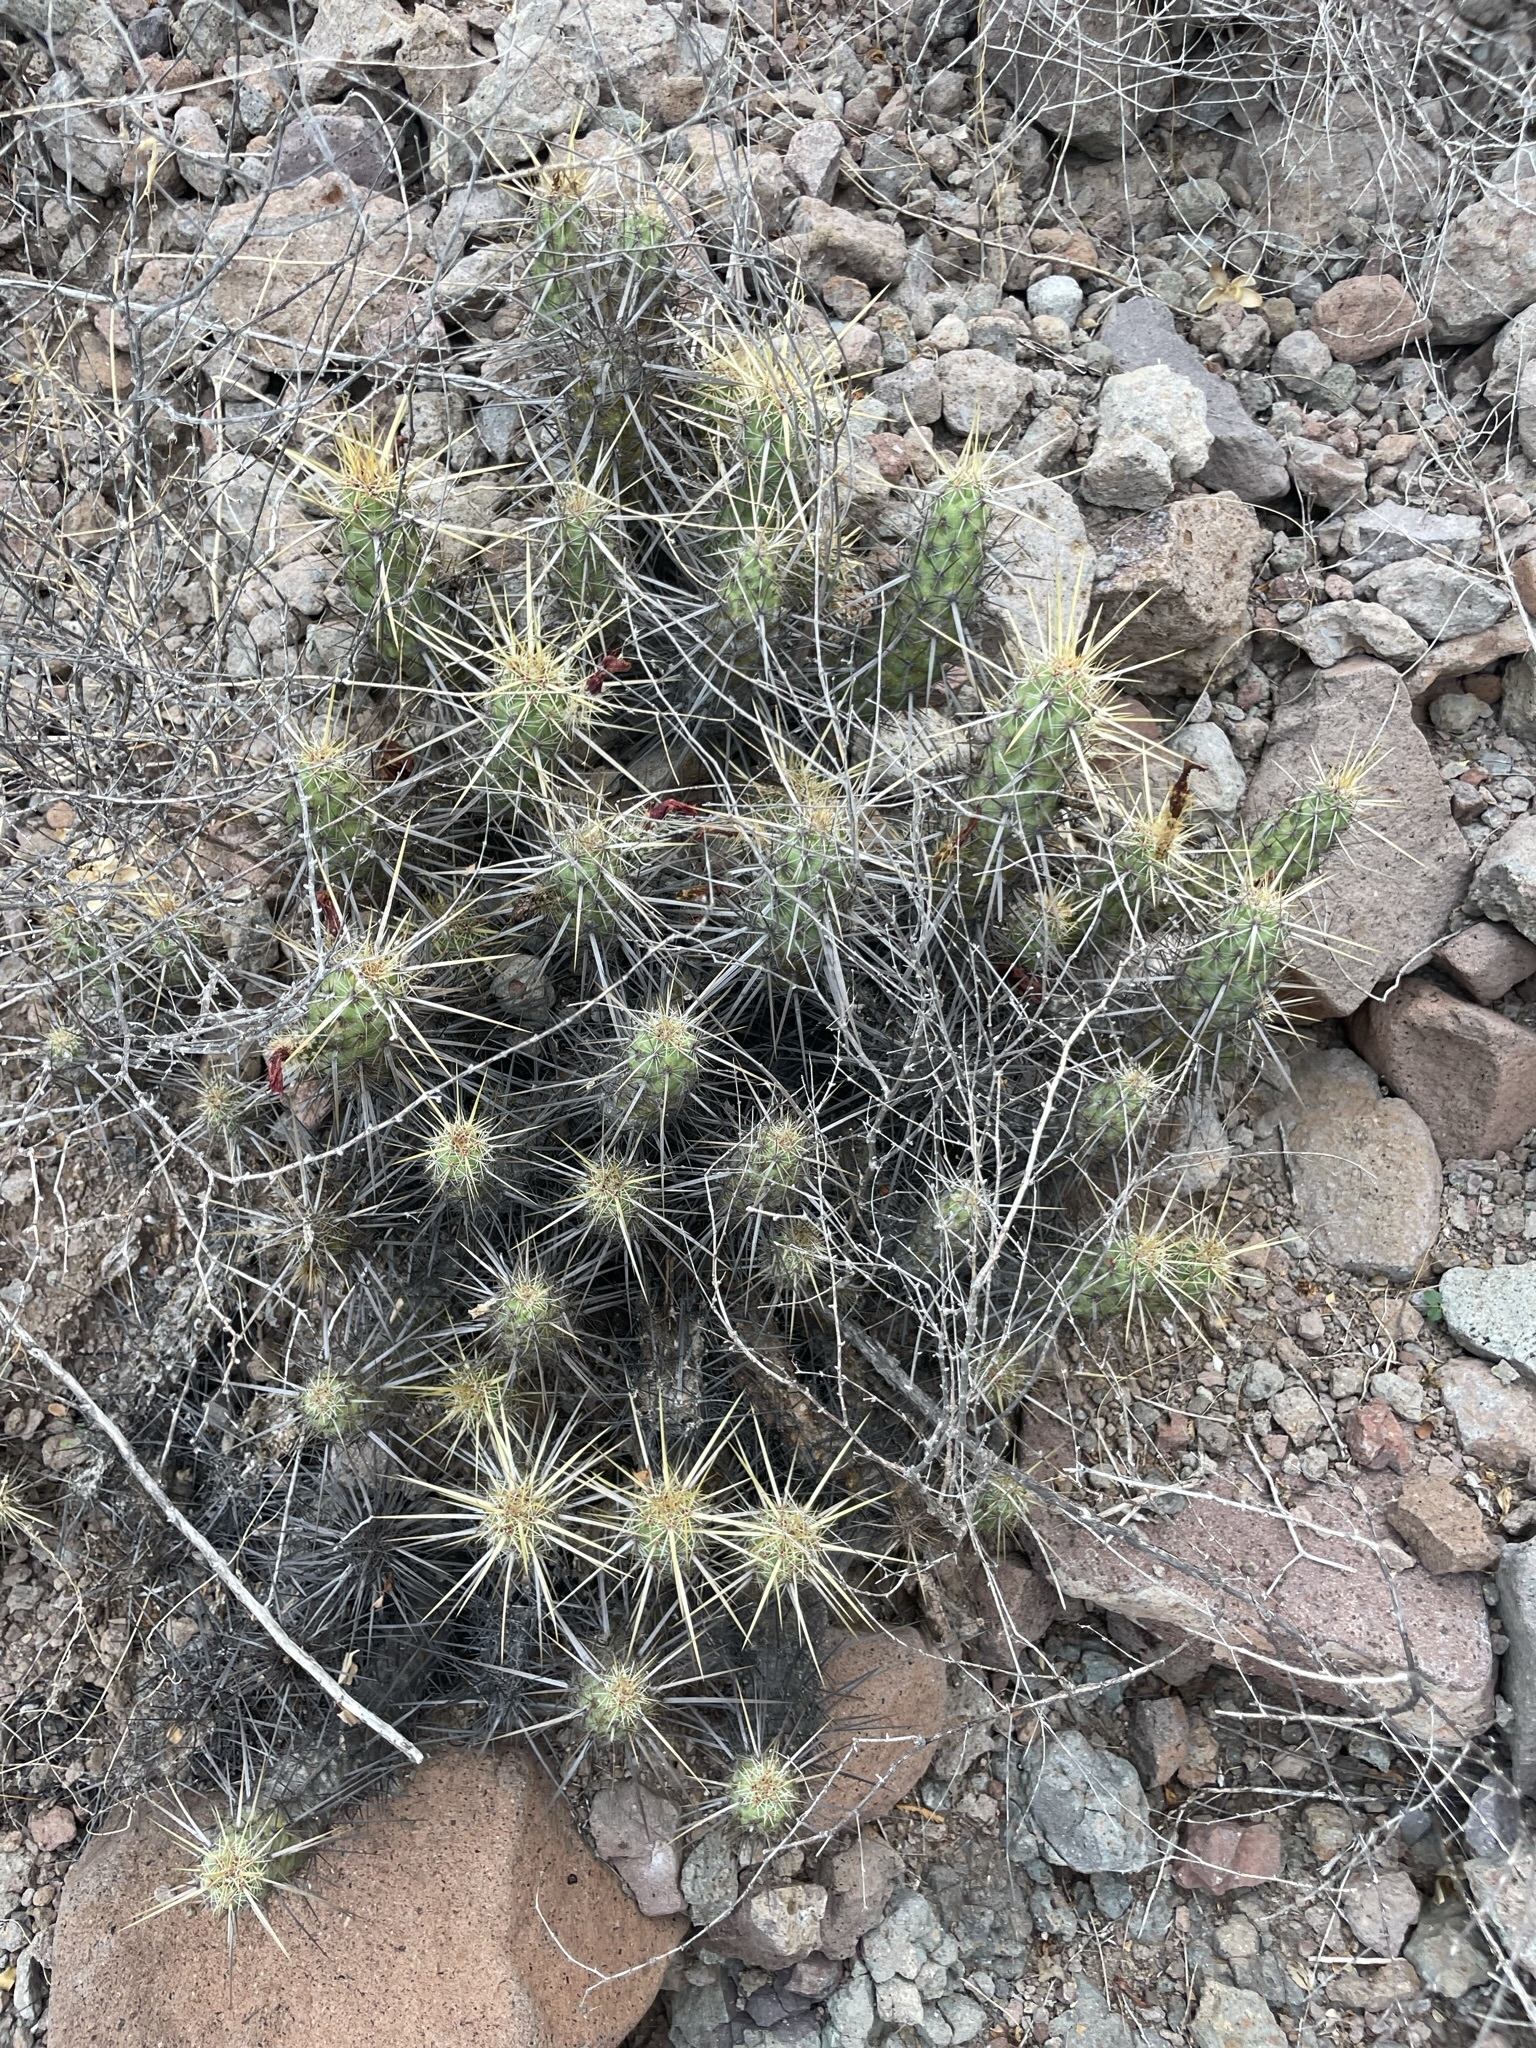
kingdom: Plantae
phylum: Tracheophyta
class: Magnoliopsida
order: Caryophyllales
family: Cactaceae
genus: Echinocereus
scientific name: Echinocereus brandegeei
